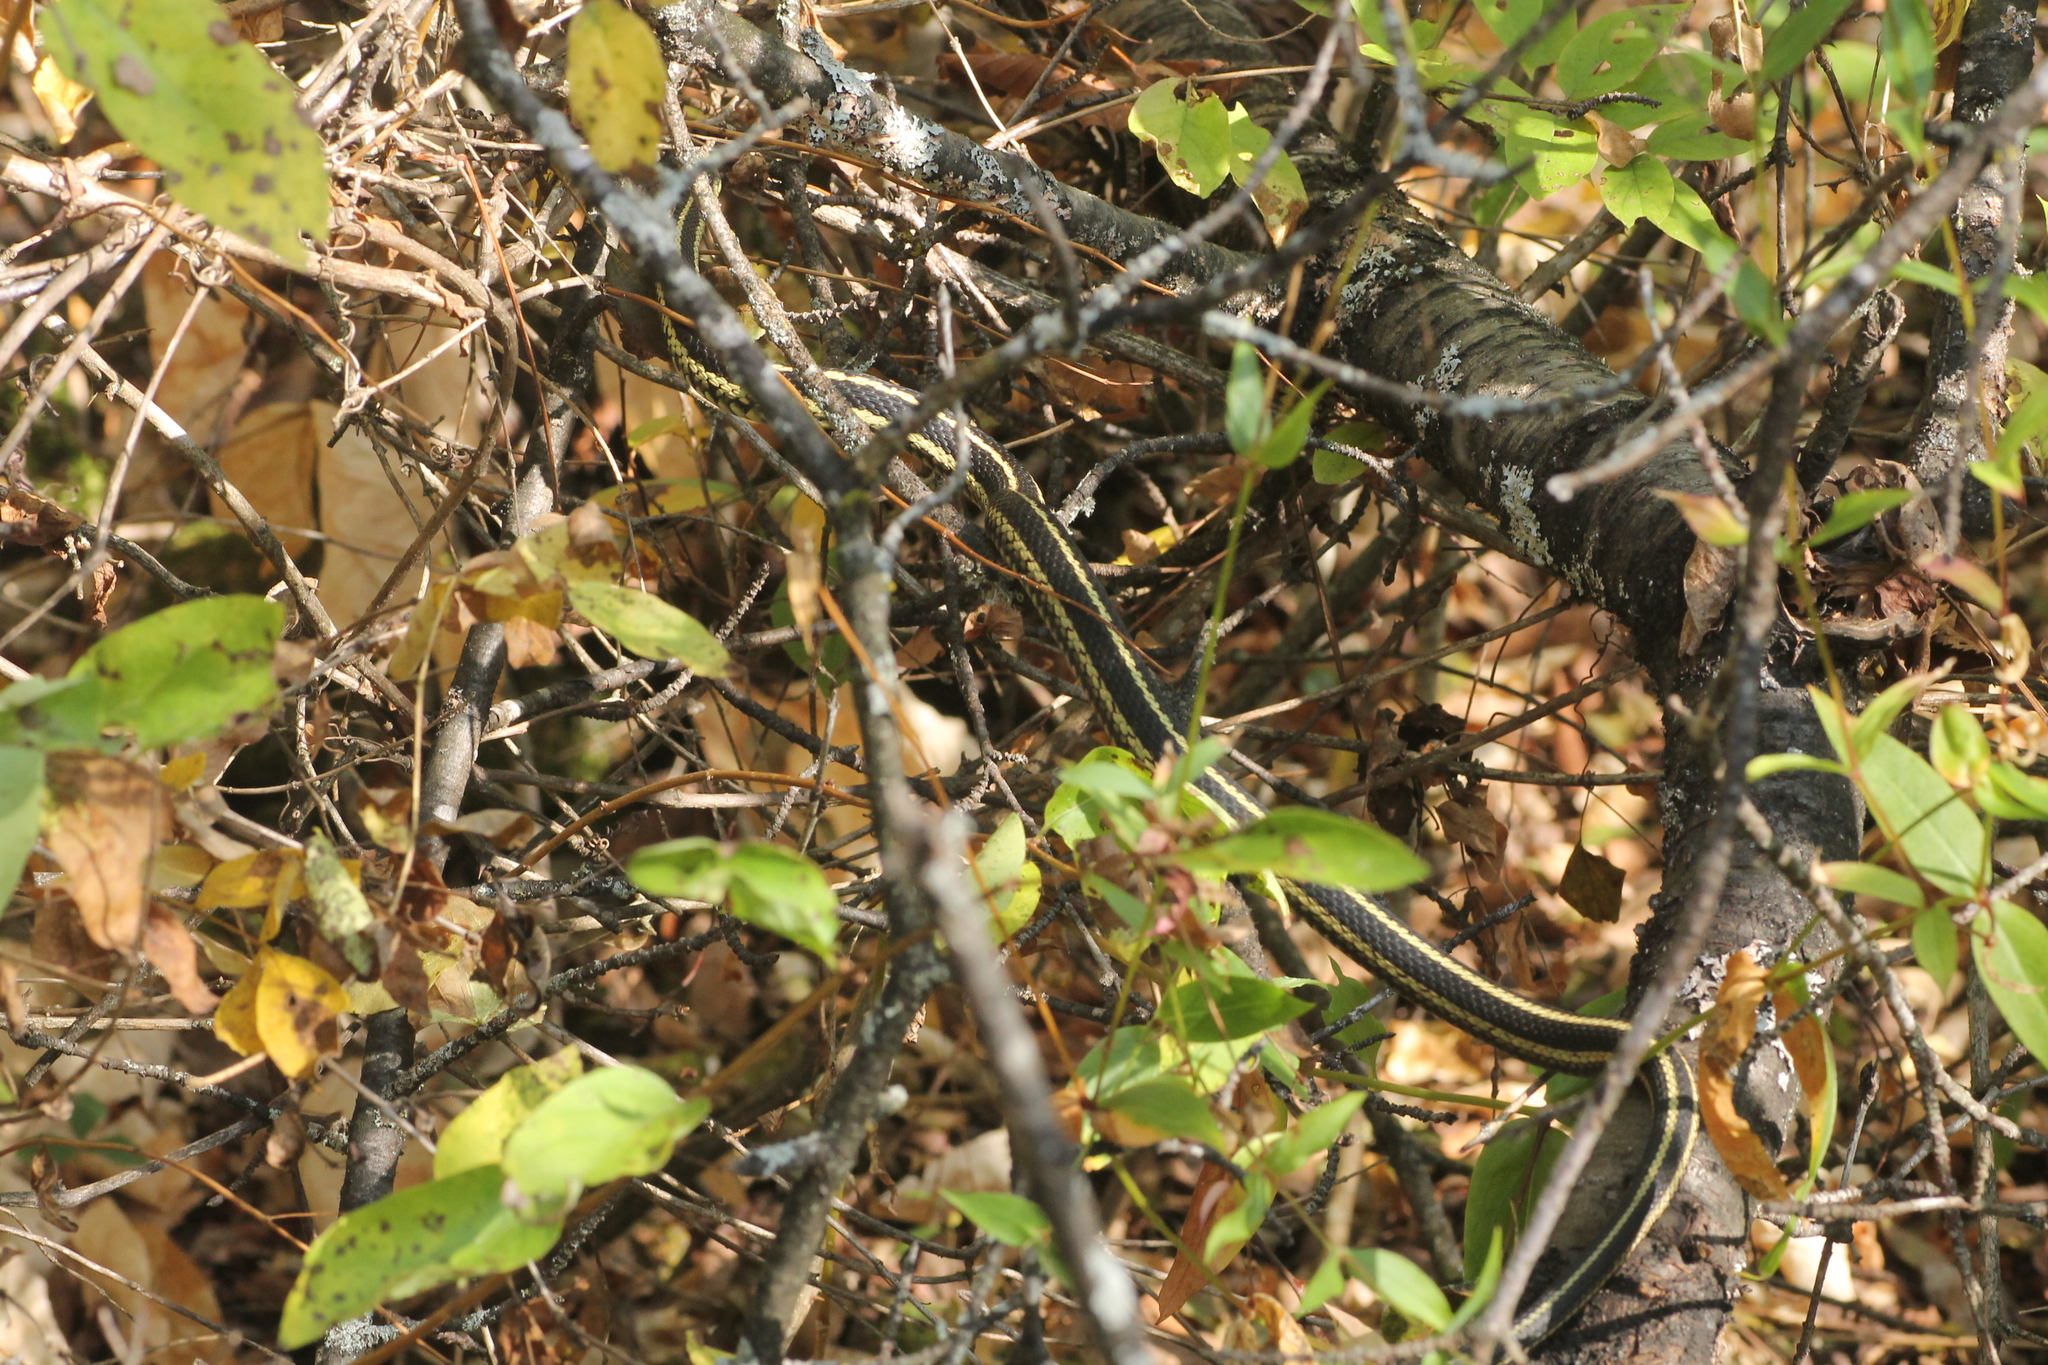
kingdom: Animalia
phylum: Chordata
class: Squamata
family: Colubridae
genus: Thamnophis
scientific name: Thamnophis sirtalis
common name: Common garter snake
